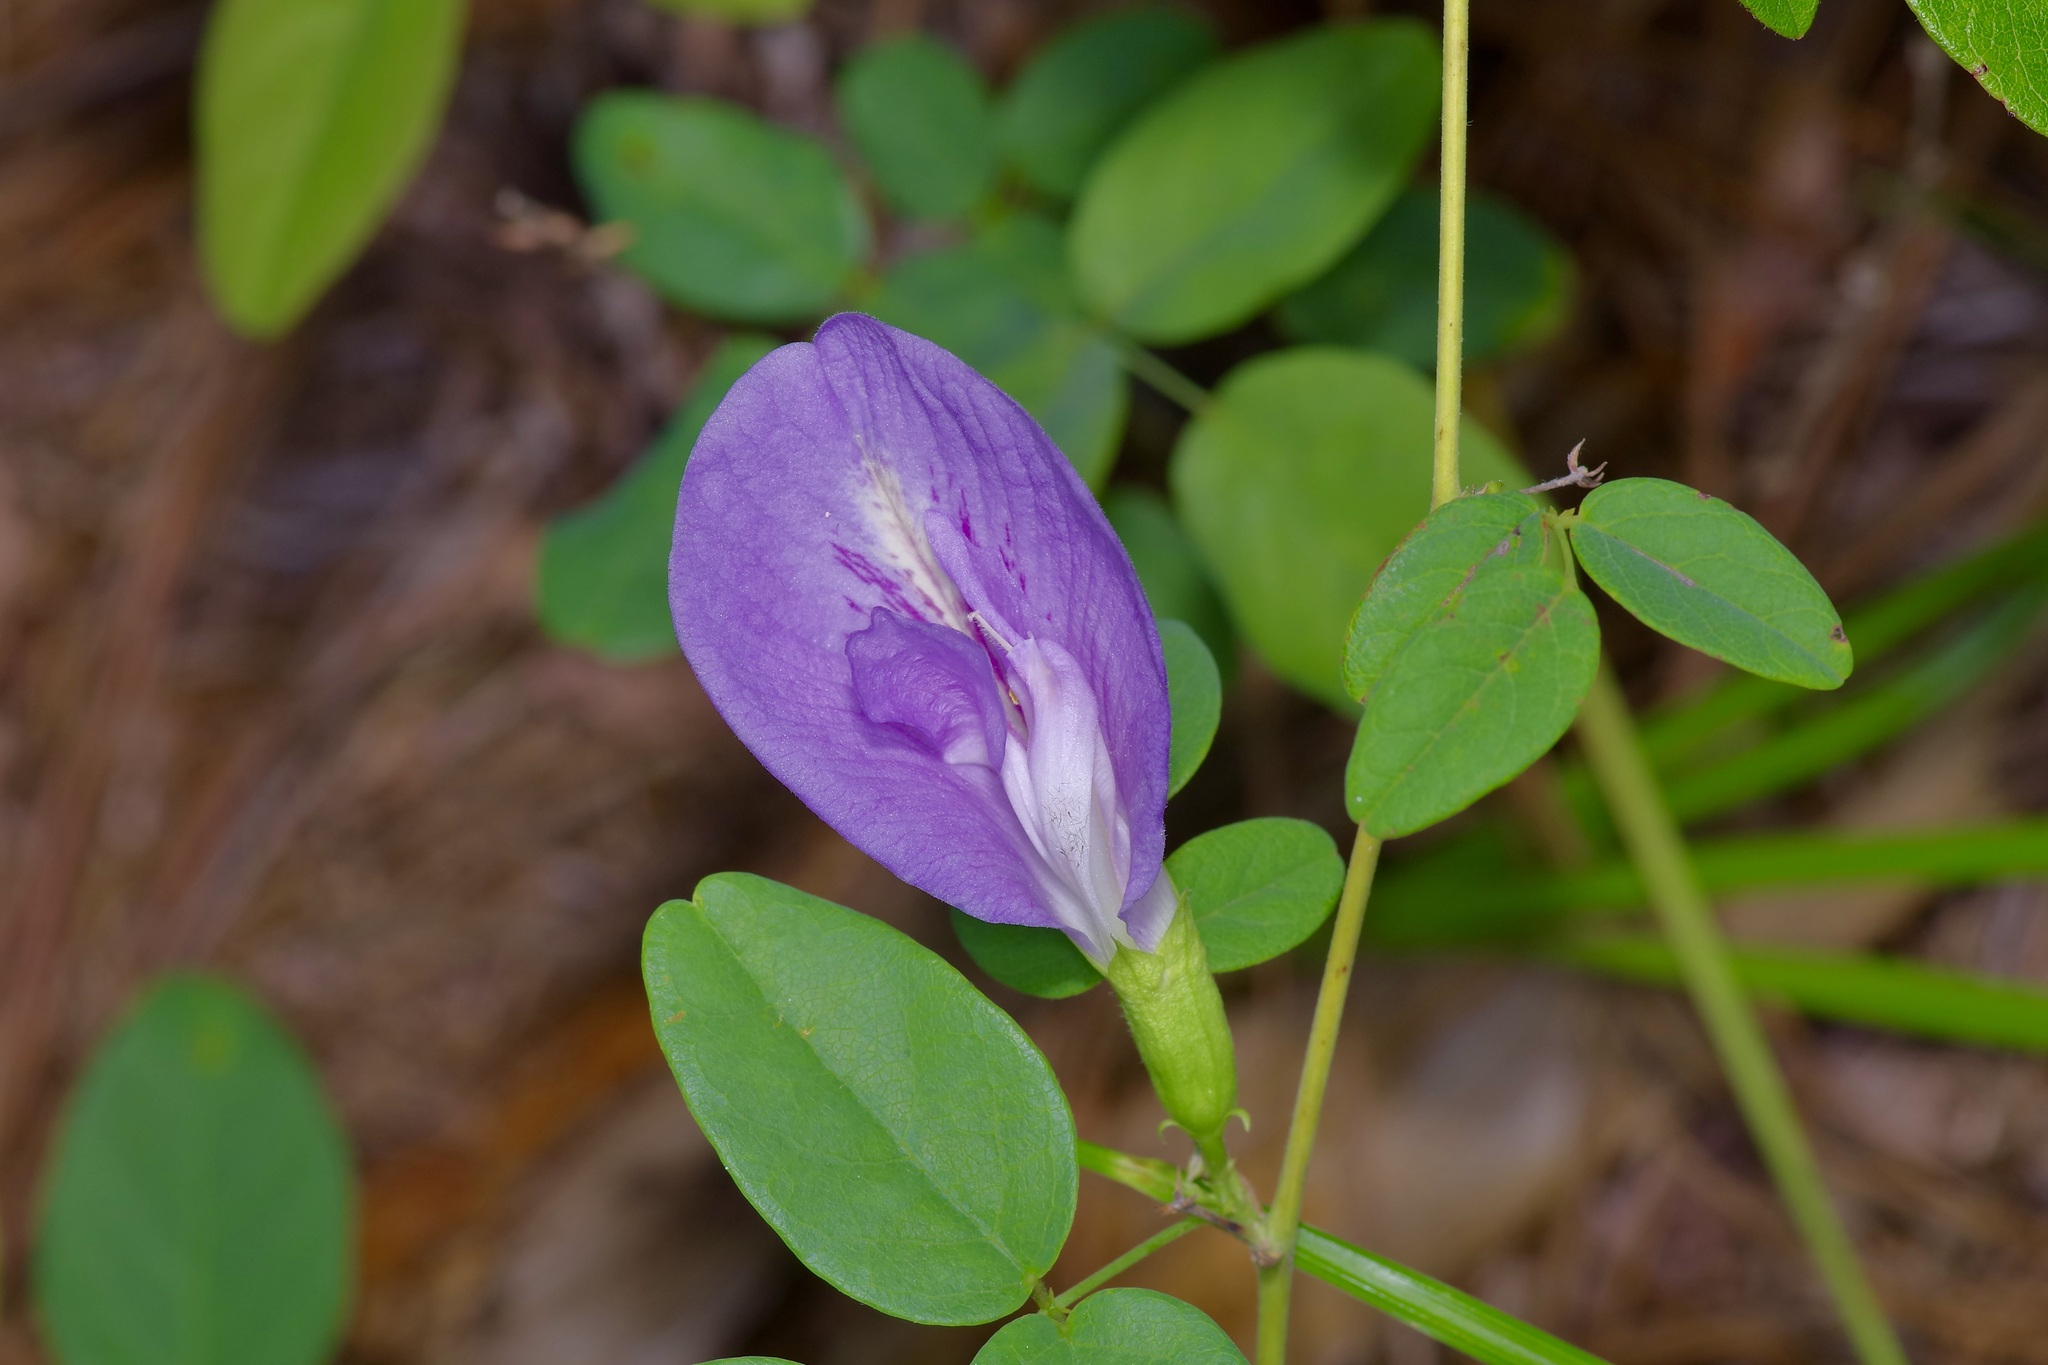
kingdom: Plantae
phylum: Tracheophyta
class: Magnoliopsida
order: Fabales
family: Fabaceae
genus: Clitoria
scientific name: Clitoria mariana
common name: Butterfly-pea
